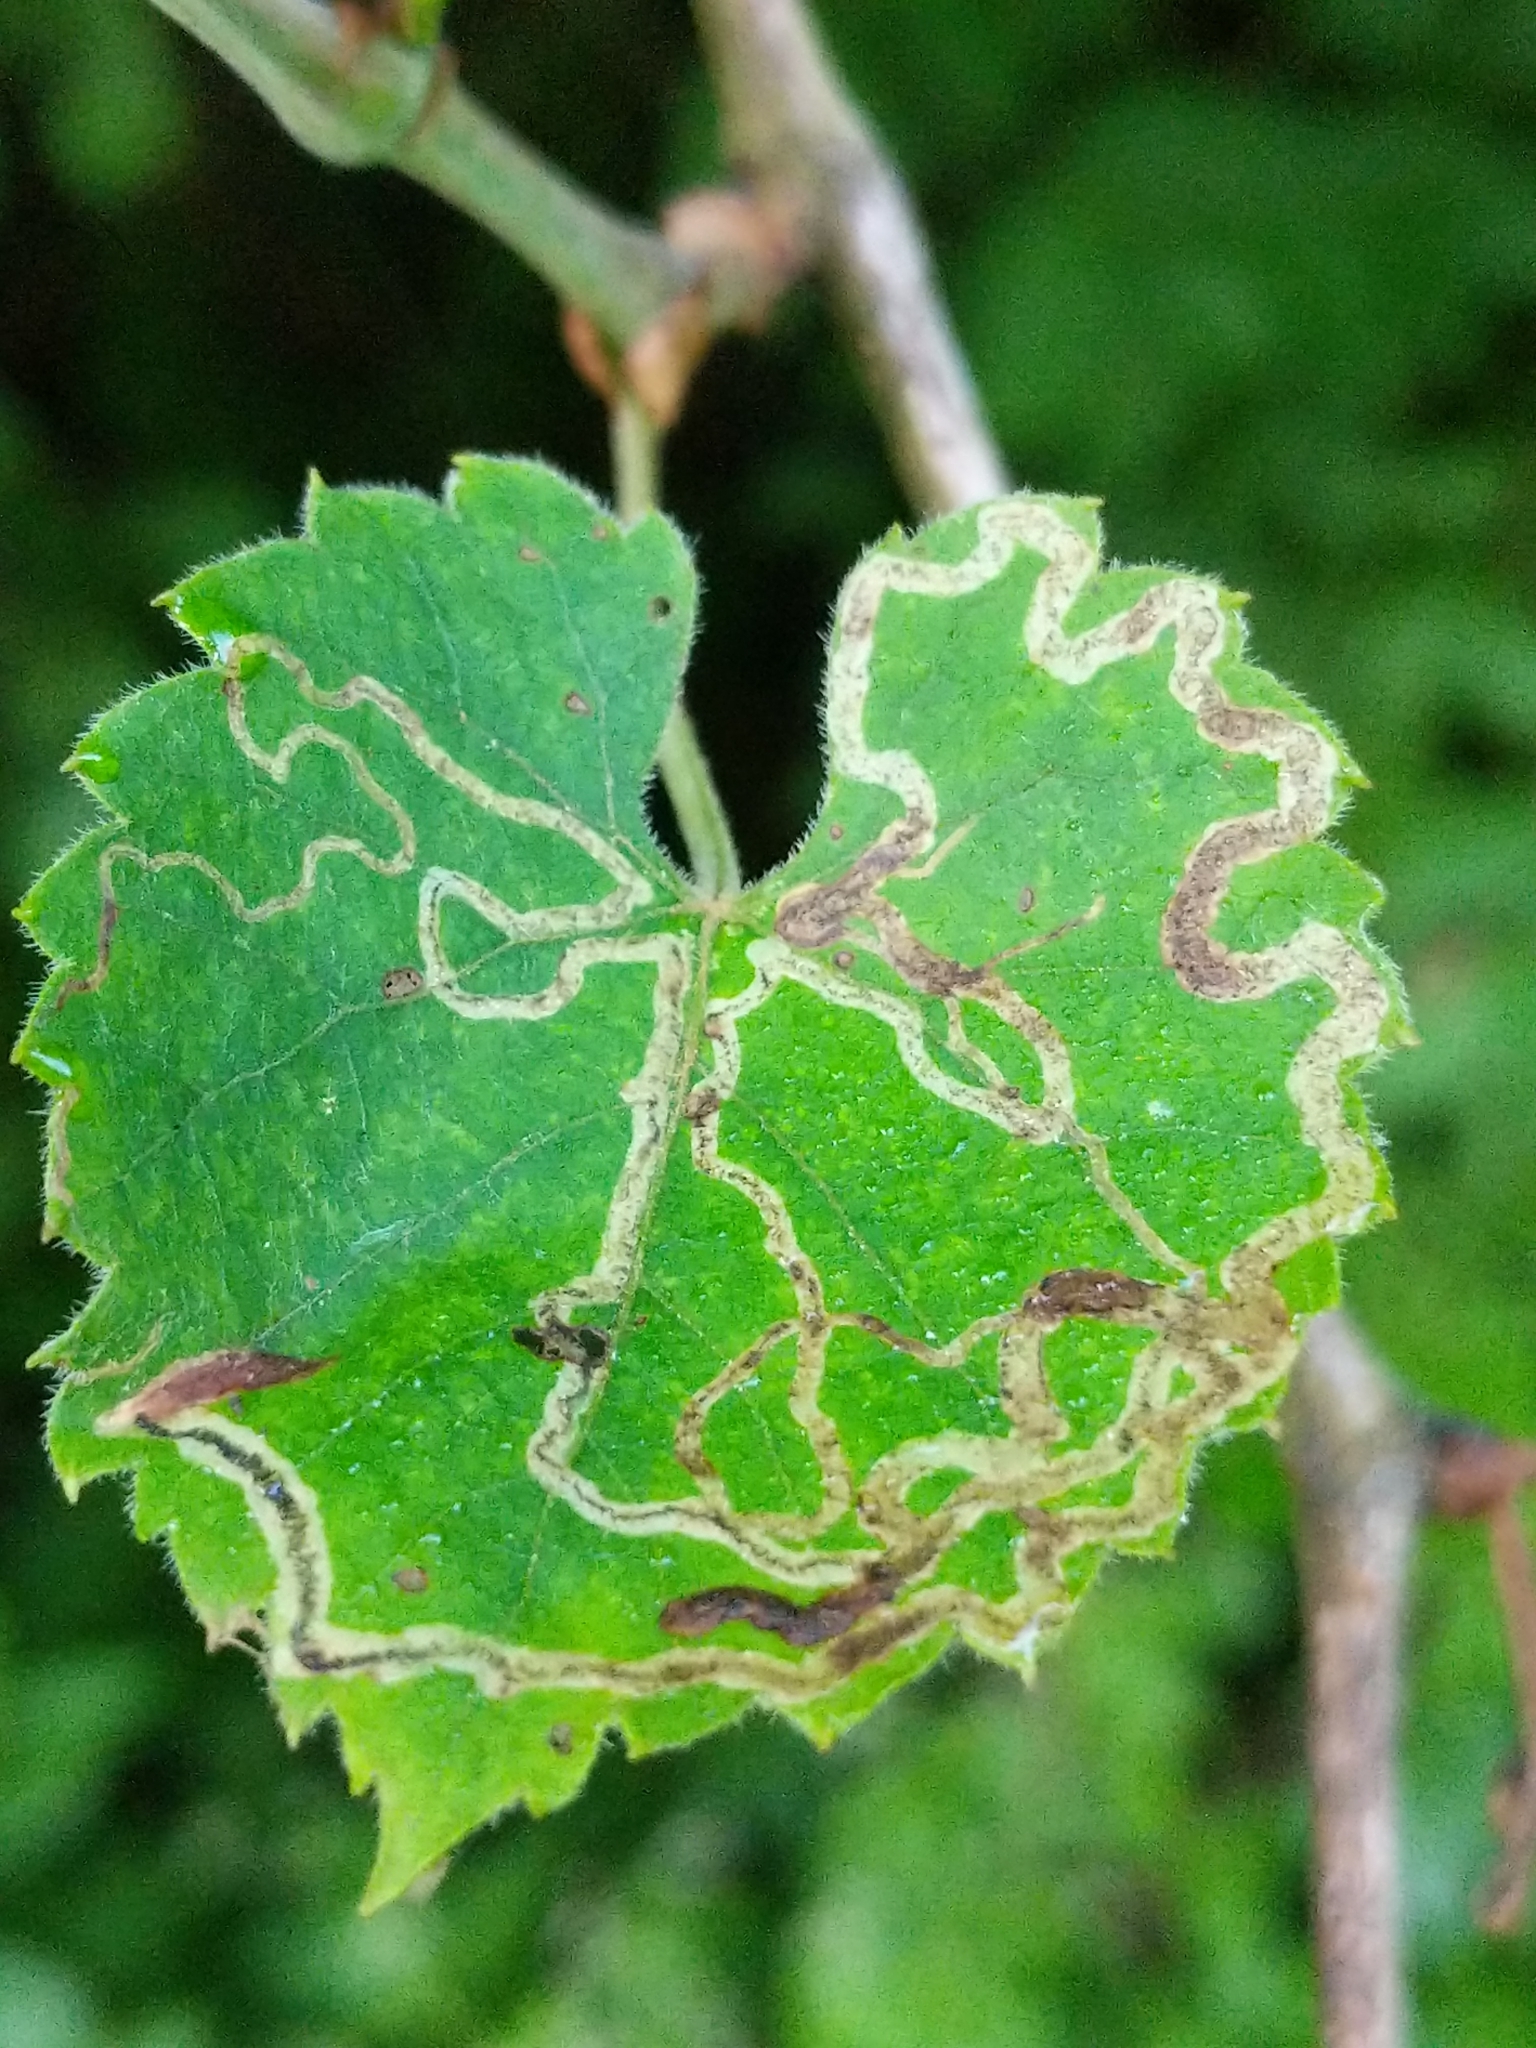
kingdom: Animalia
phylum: Arthropoda
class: Insecta
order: Lepidoptera
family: Gracillariidae
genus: Phyllocnistis
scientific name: Phyllocnistis vitifoliella
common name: Grape leaf-miner moth
